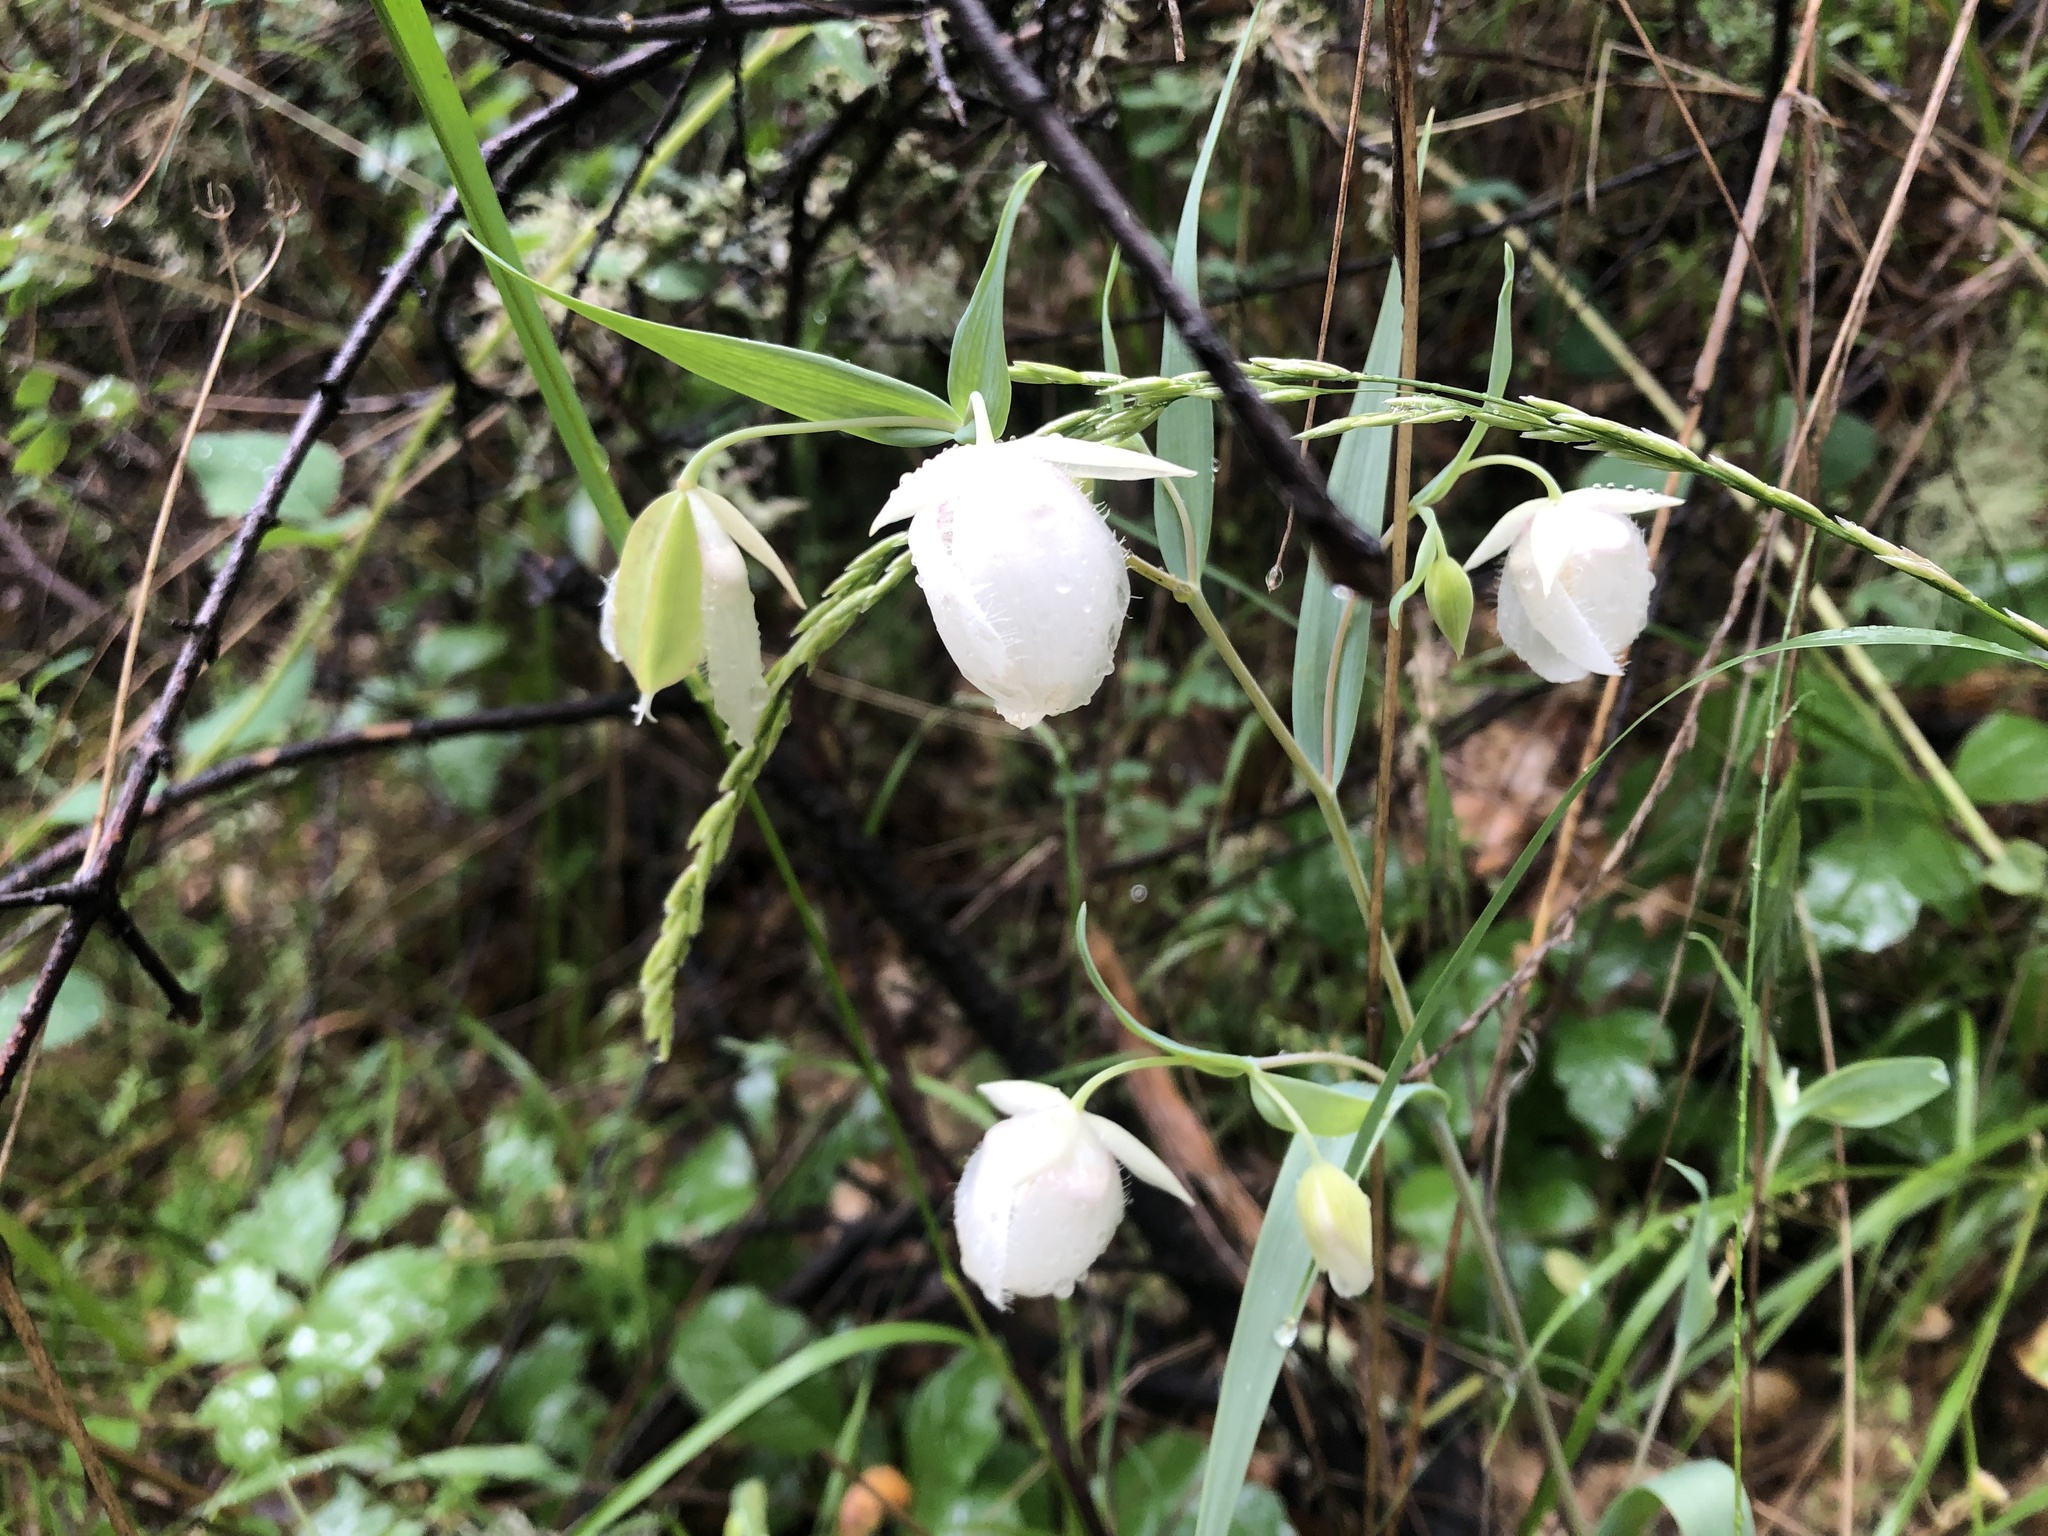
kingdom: Plantae
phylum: Tracheophyta
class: Liliopsida
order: Liliales
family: Liliaceae
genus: Calochortus
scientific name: Calochortus albus
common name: Fairy-lantern
